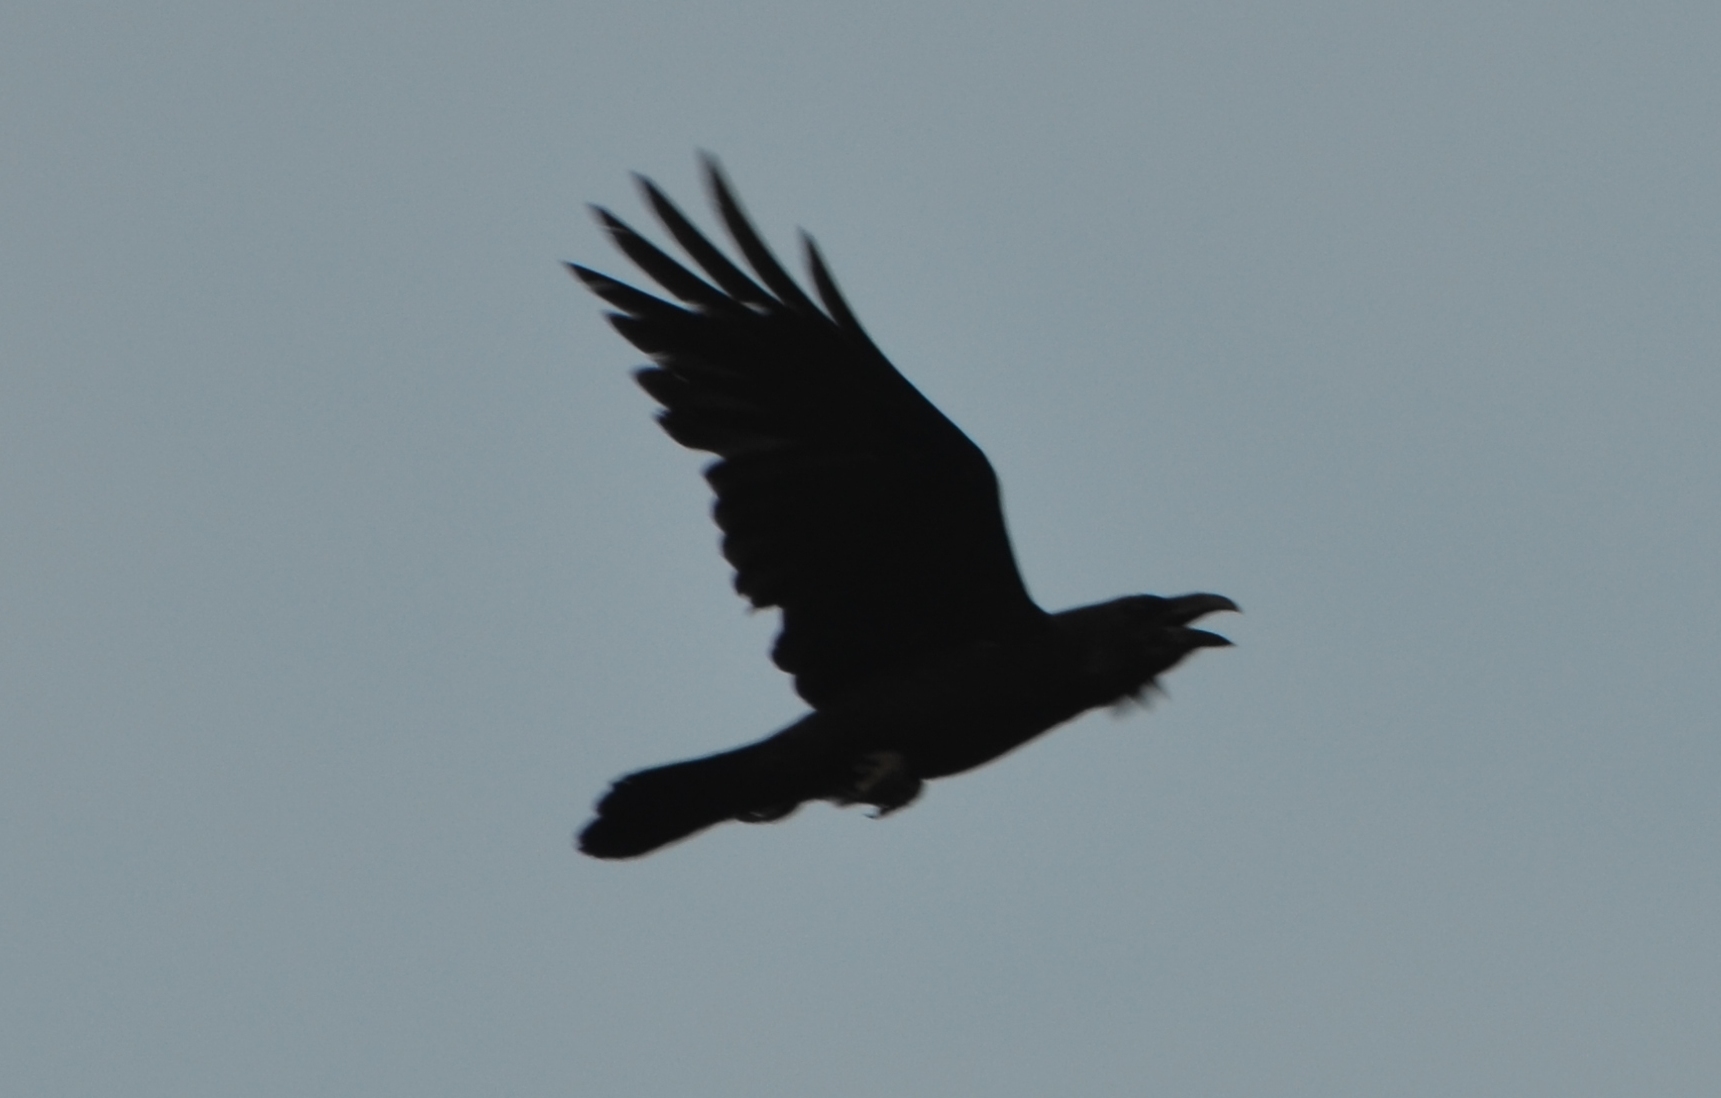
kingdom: Animalia
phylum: Chordata
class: Aves
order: Passeriformes
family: Corvidae
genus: Corvus
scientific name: Corvus corax
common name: Common raven
